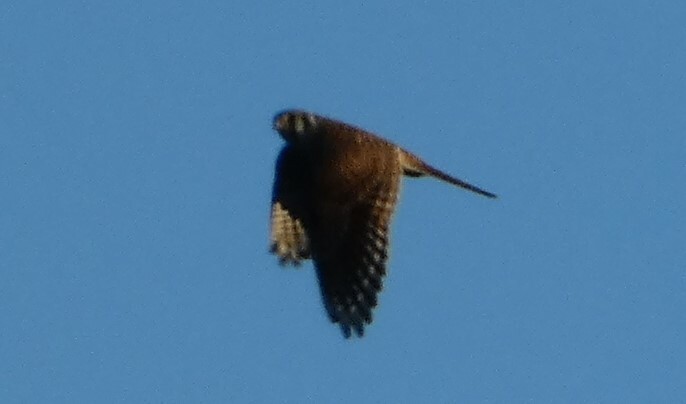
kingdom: Animalia
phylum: Chordata
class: Aves
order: Falconiformes
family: Falconidae
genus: Falco
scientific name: Falco sparverius
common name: American kestrel
